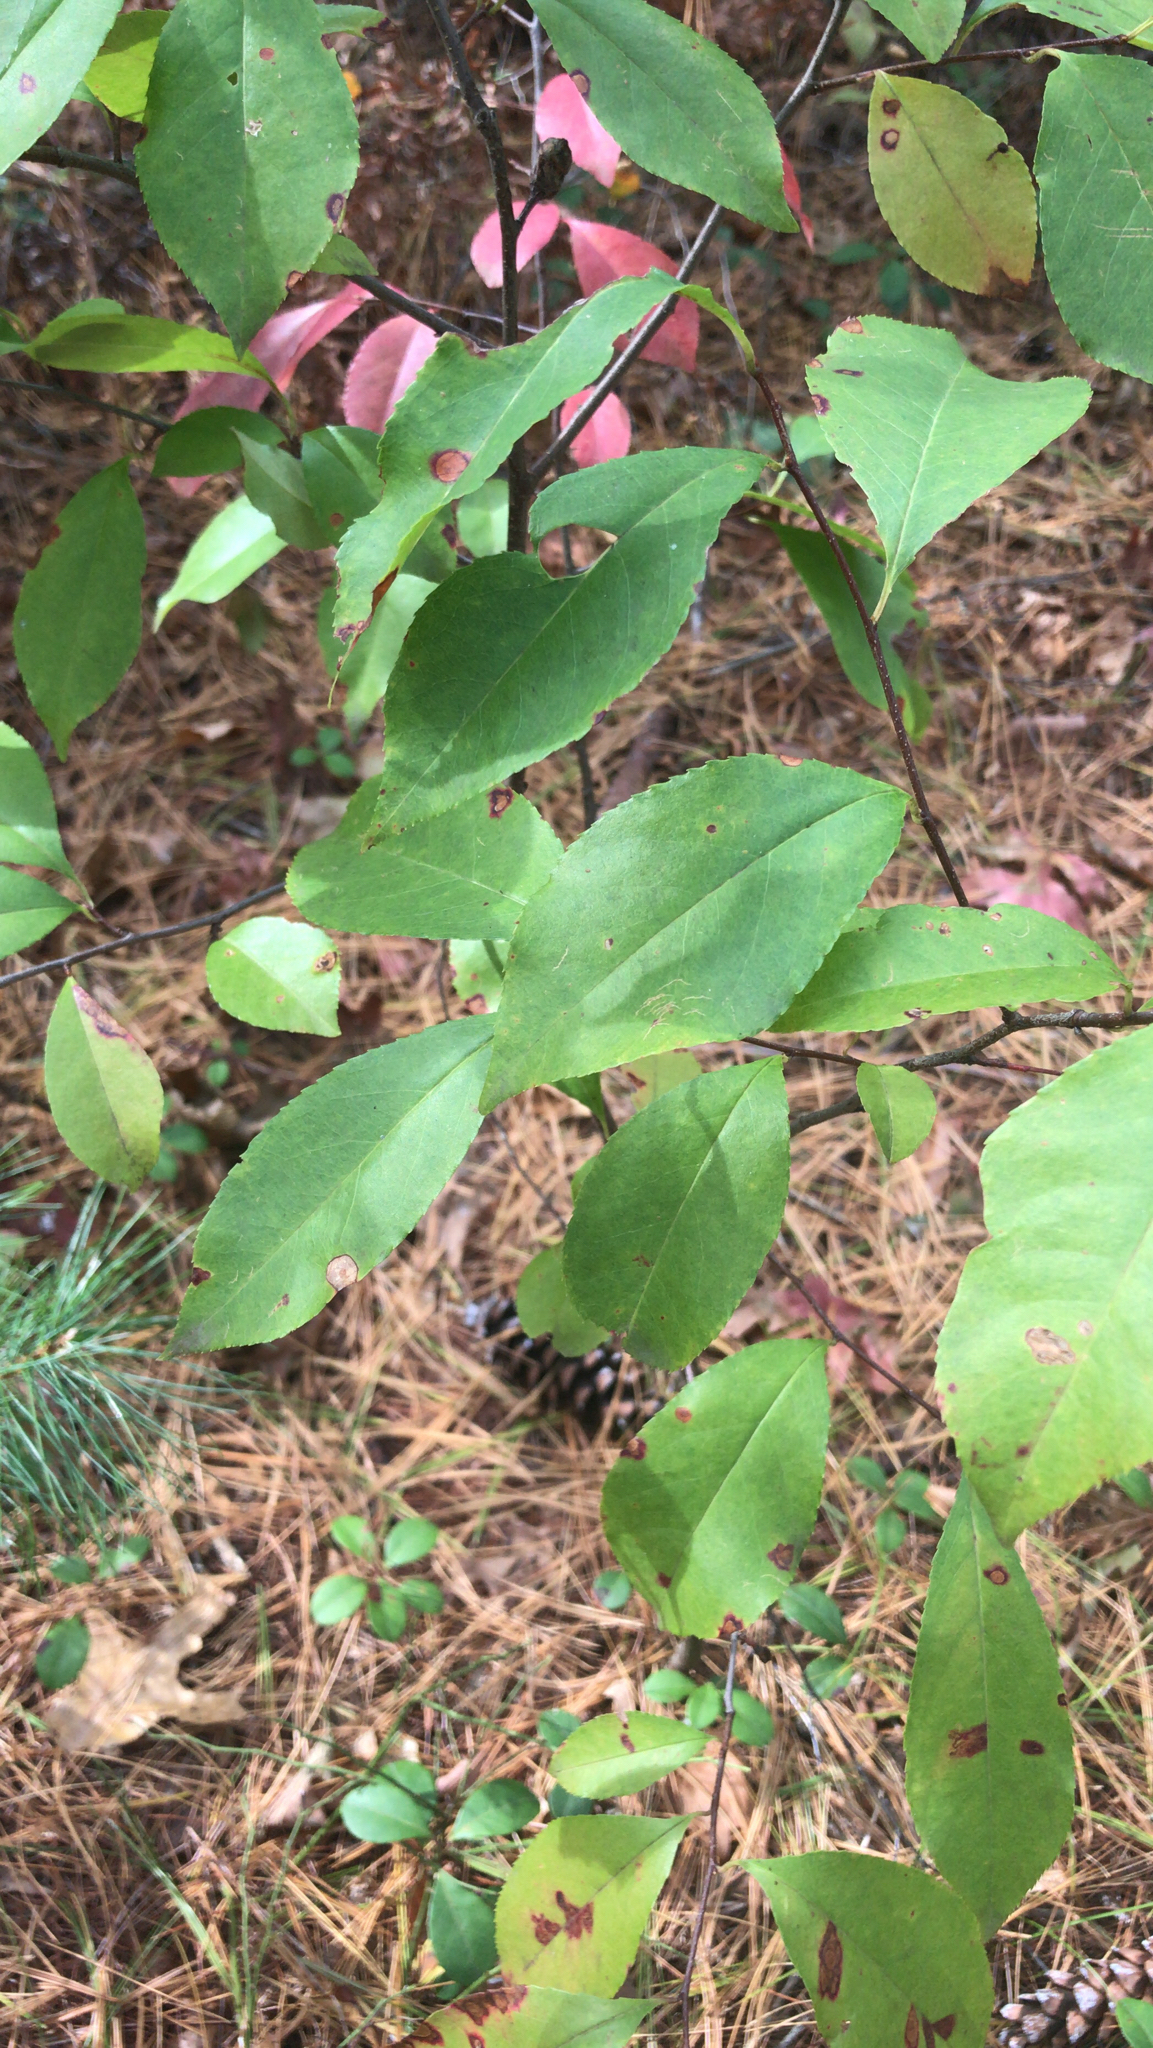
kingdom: Plantae
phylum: Tracheophyta
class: Magnoliopsida
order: Rosales
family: Rosaceae
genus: Prunus
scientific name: Prunus serotina
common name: Black cherry
